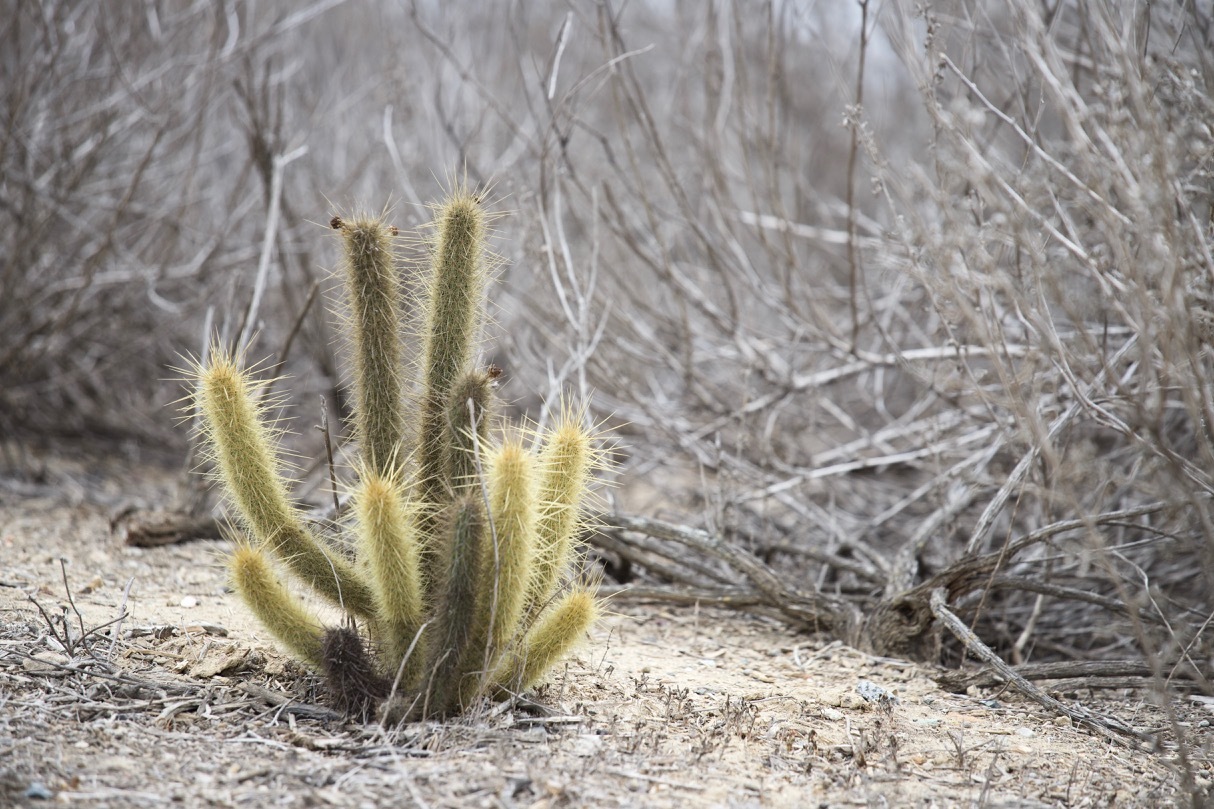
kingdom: Plantae
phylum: Tracheophyta
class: Magnoliopsida
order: Caryophyllales
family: Cactaceae
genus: Bergerocactus
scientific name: Bergerocactus emoryi
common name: Golden snakecactus
